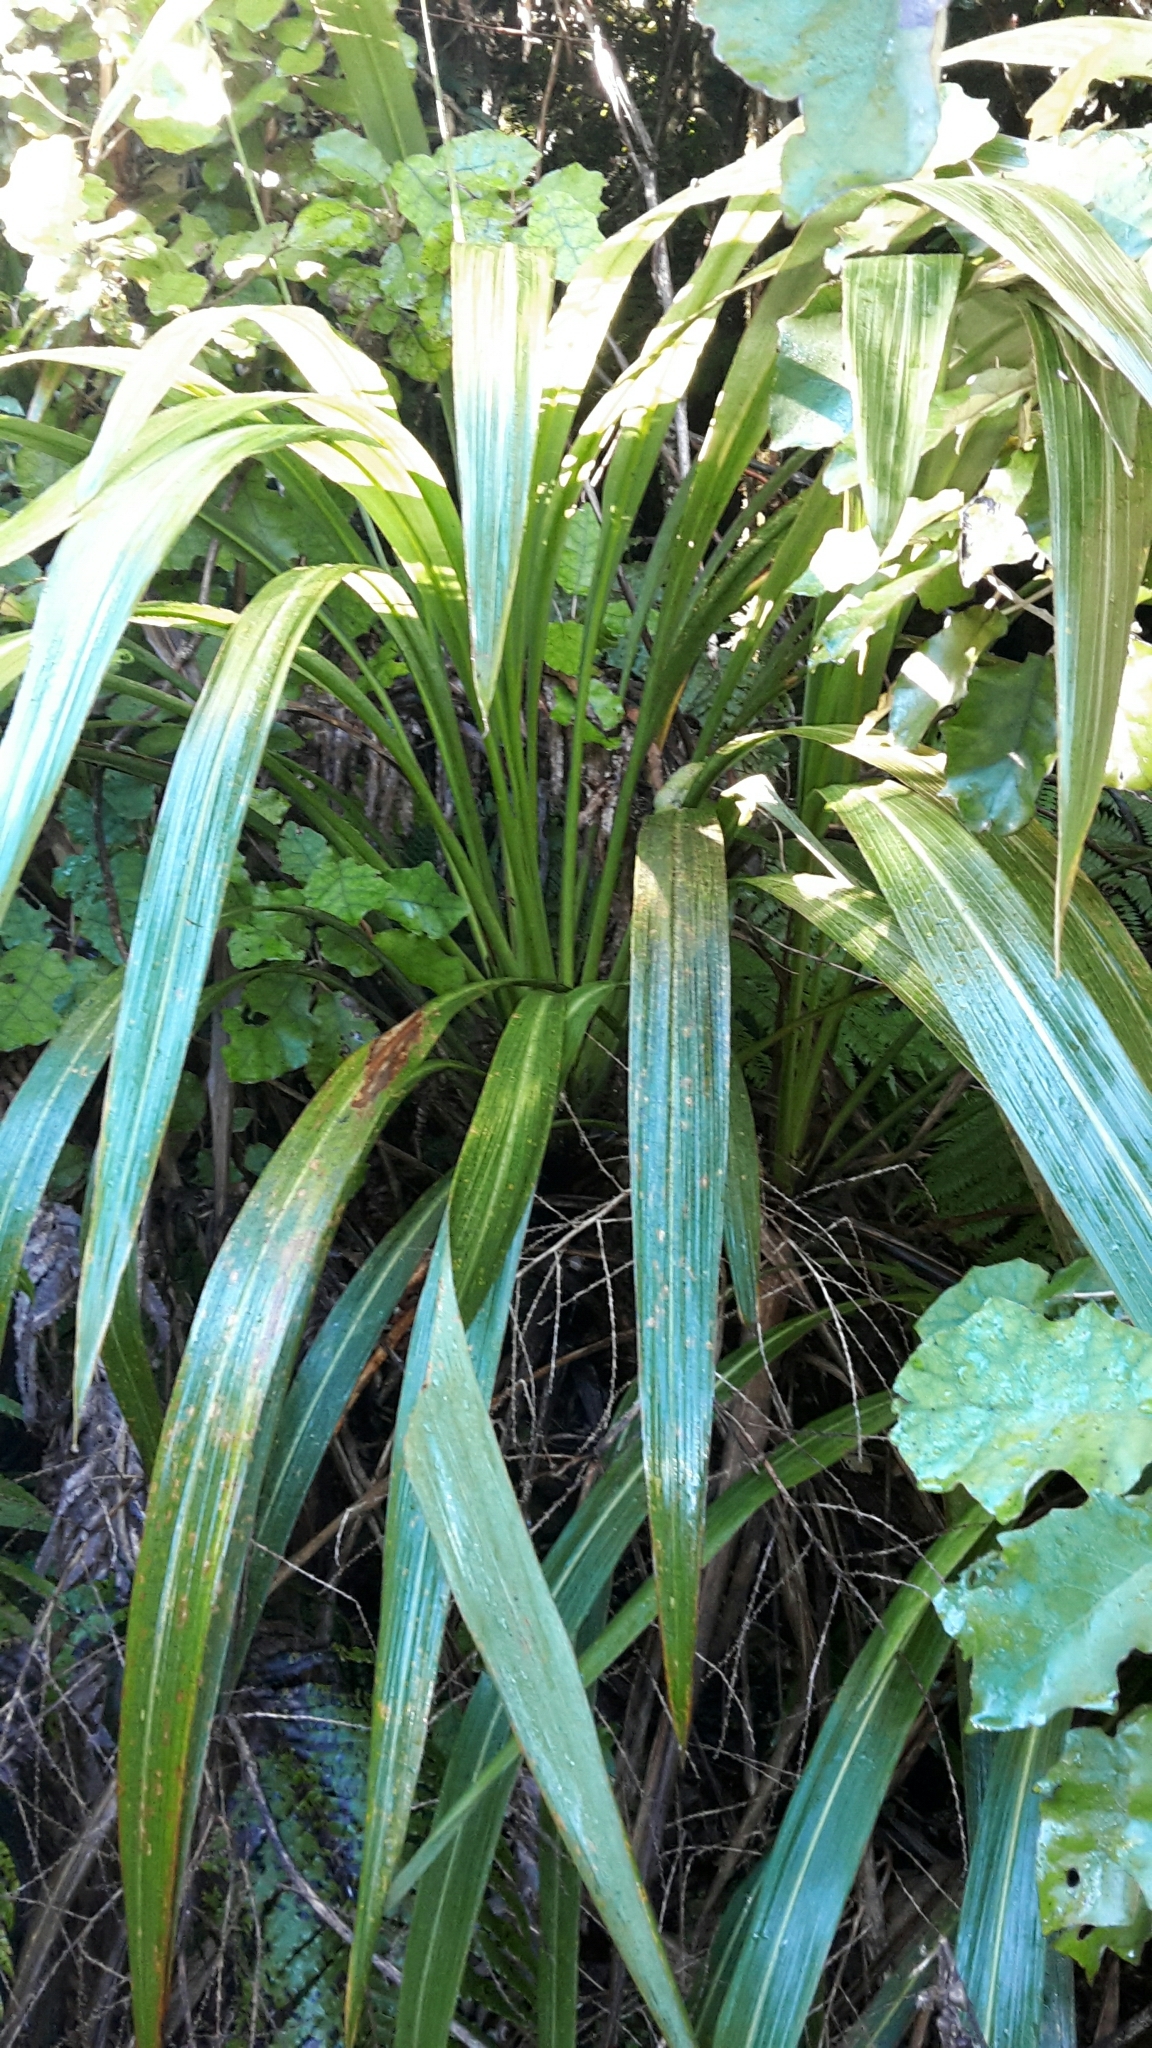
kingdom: Plantae
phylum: Tracheophyta
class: Liliopsida
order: Asparagales
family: Asparagaceae
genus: Cordyline
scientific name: Cordyline banksii
